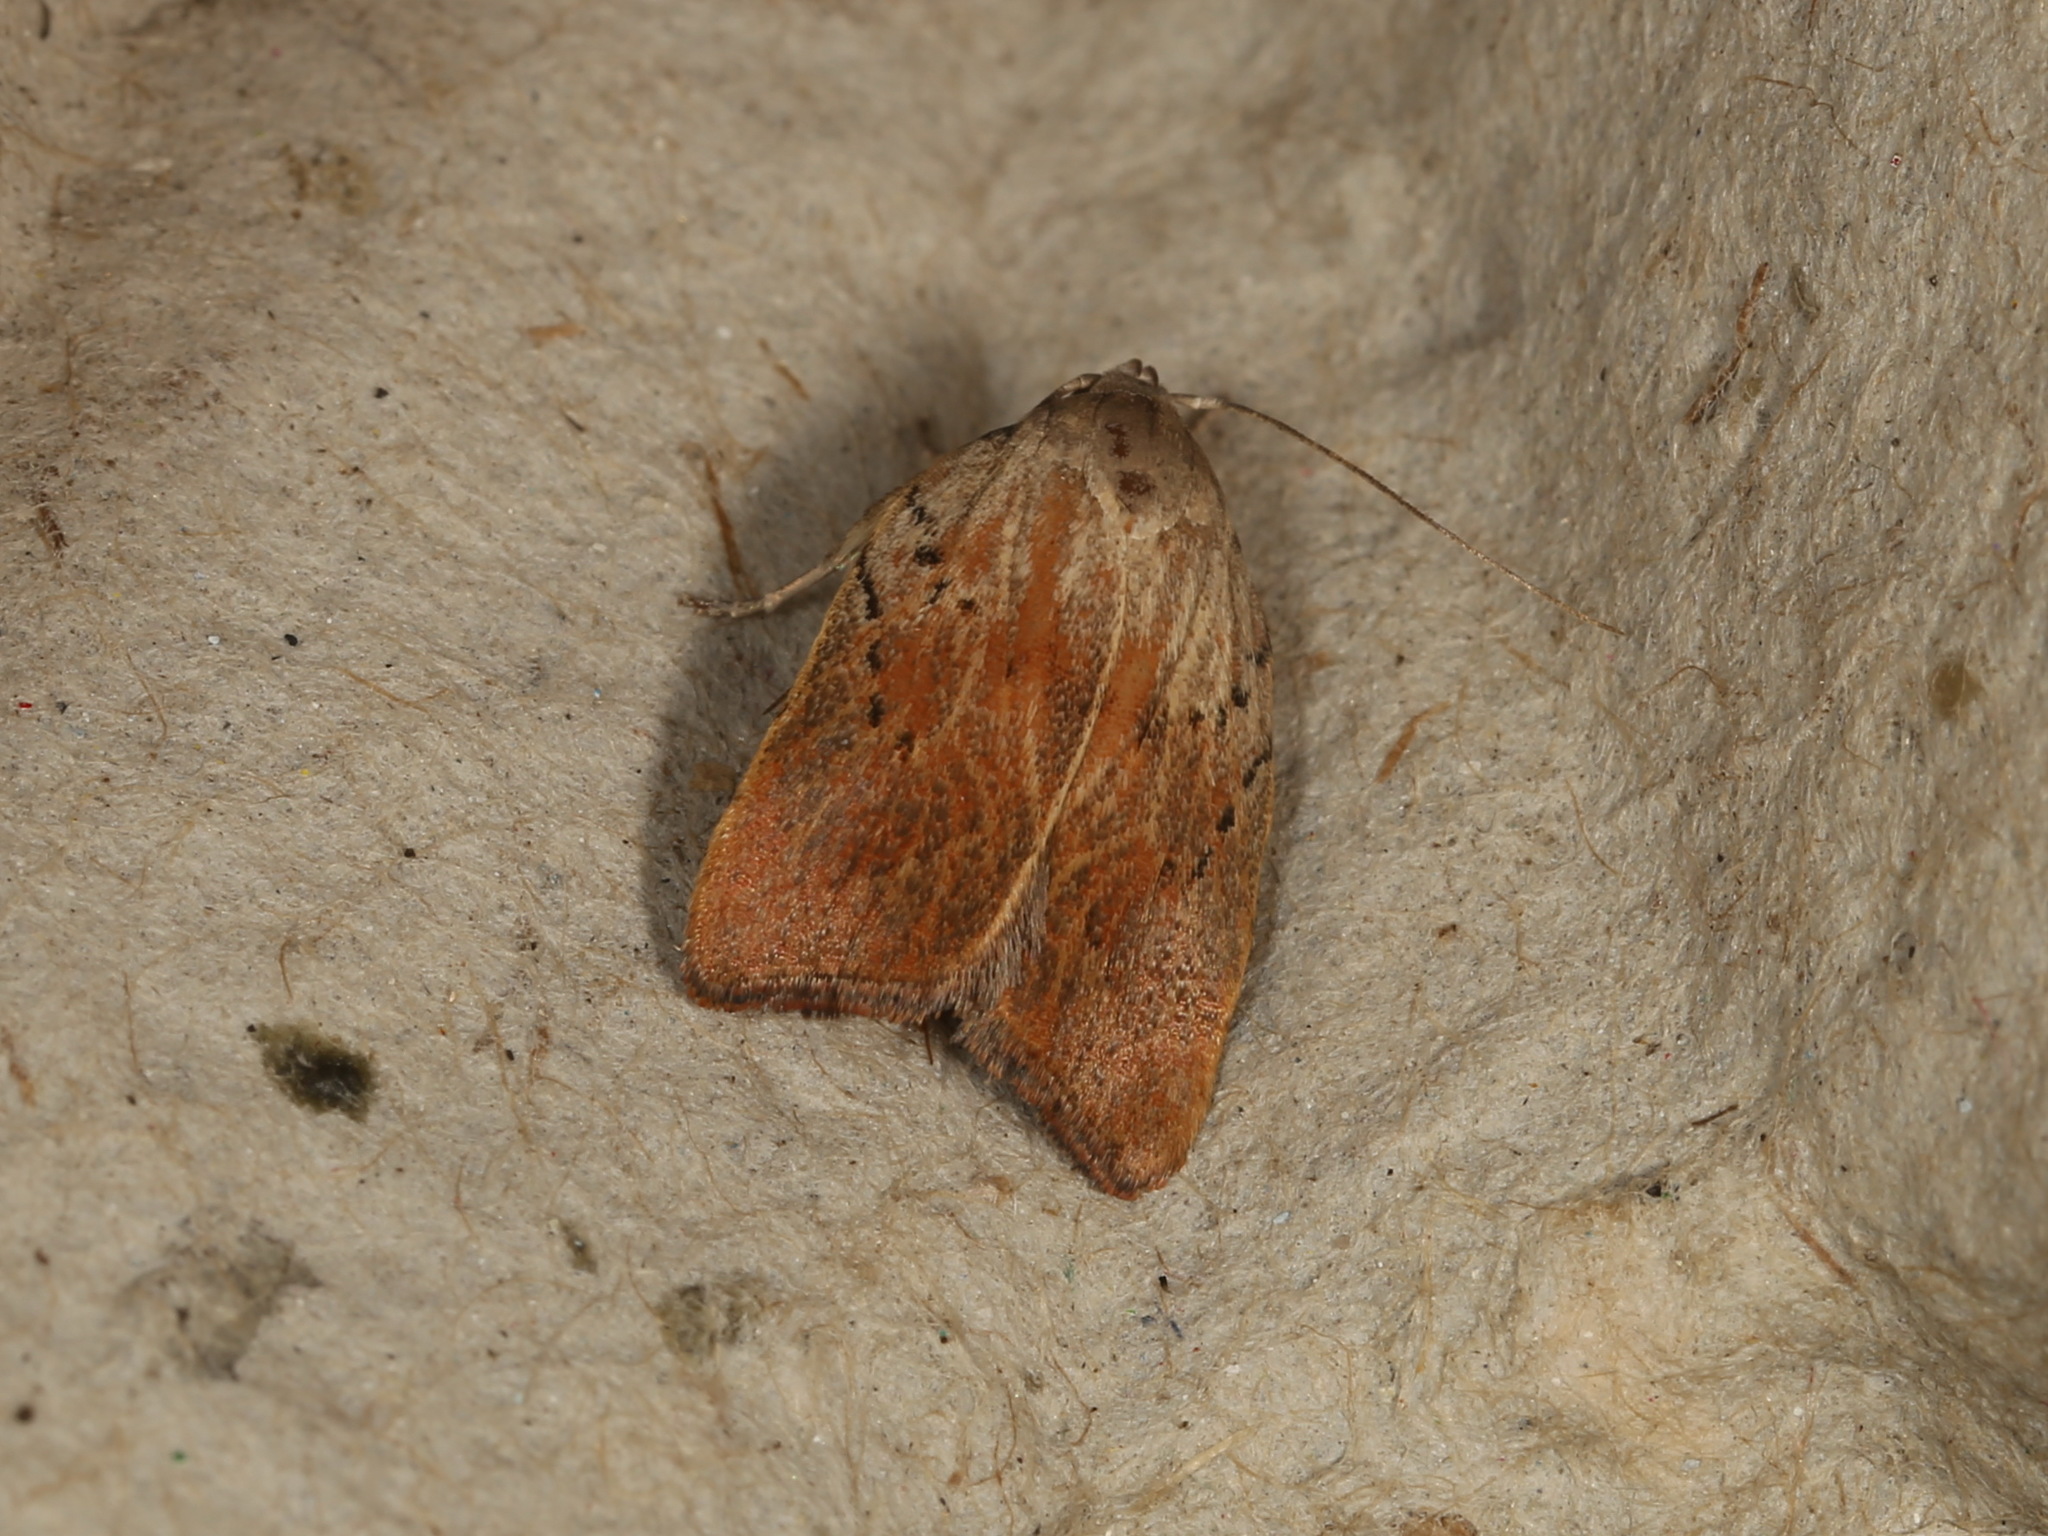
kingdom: Animalia
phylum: Arthropoda
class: Insecta
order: Lepidoptera
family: Oecophoridae
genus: Tortricopsis
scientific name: Tortricopsis pyroptis
